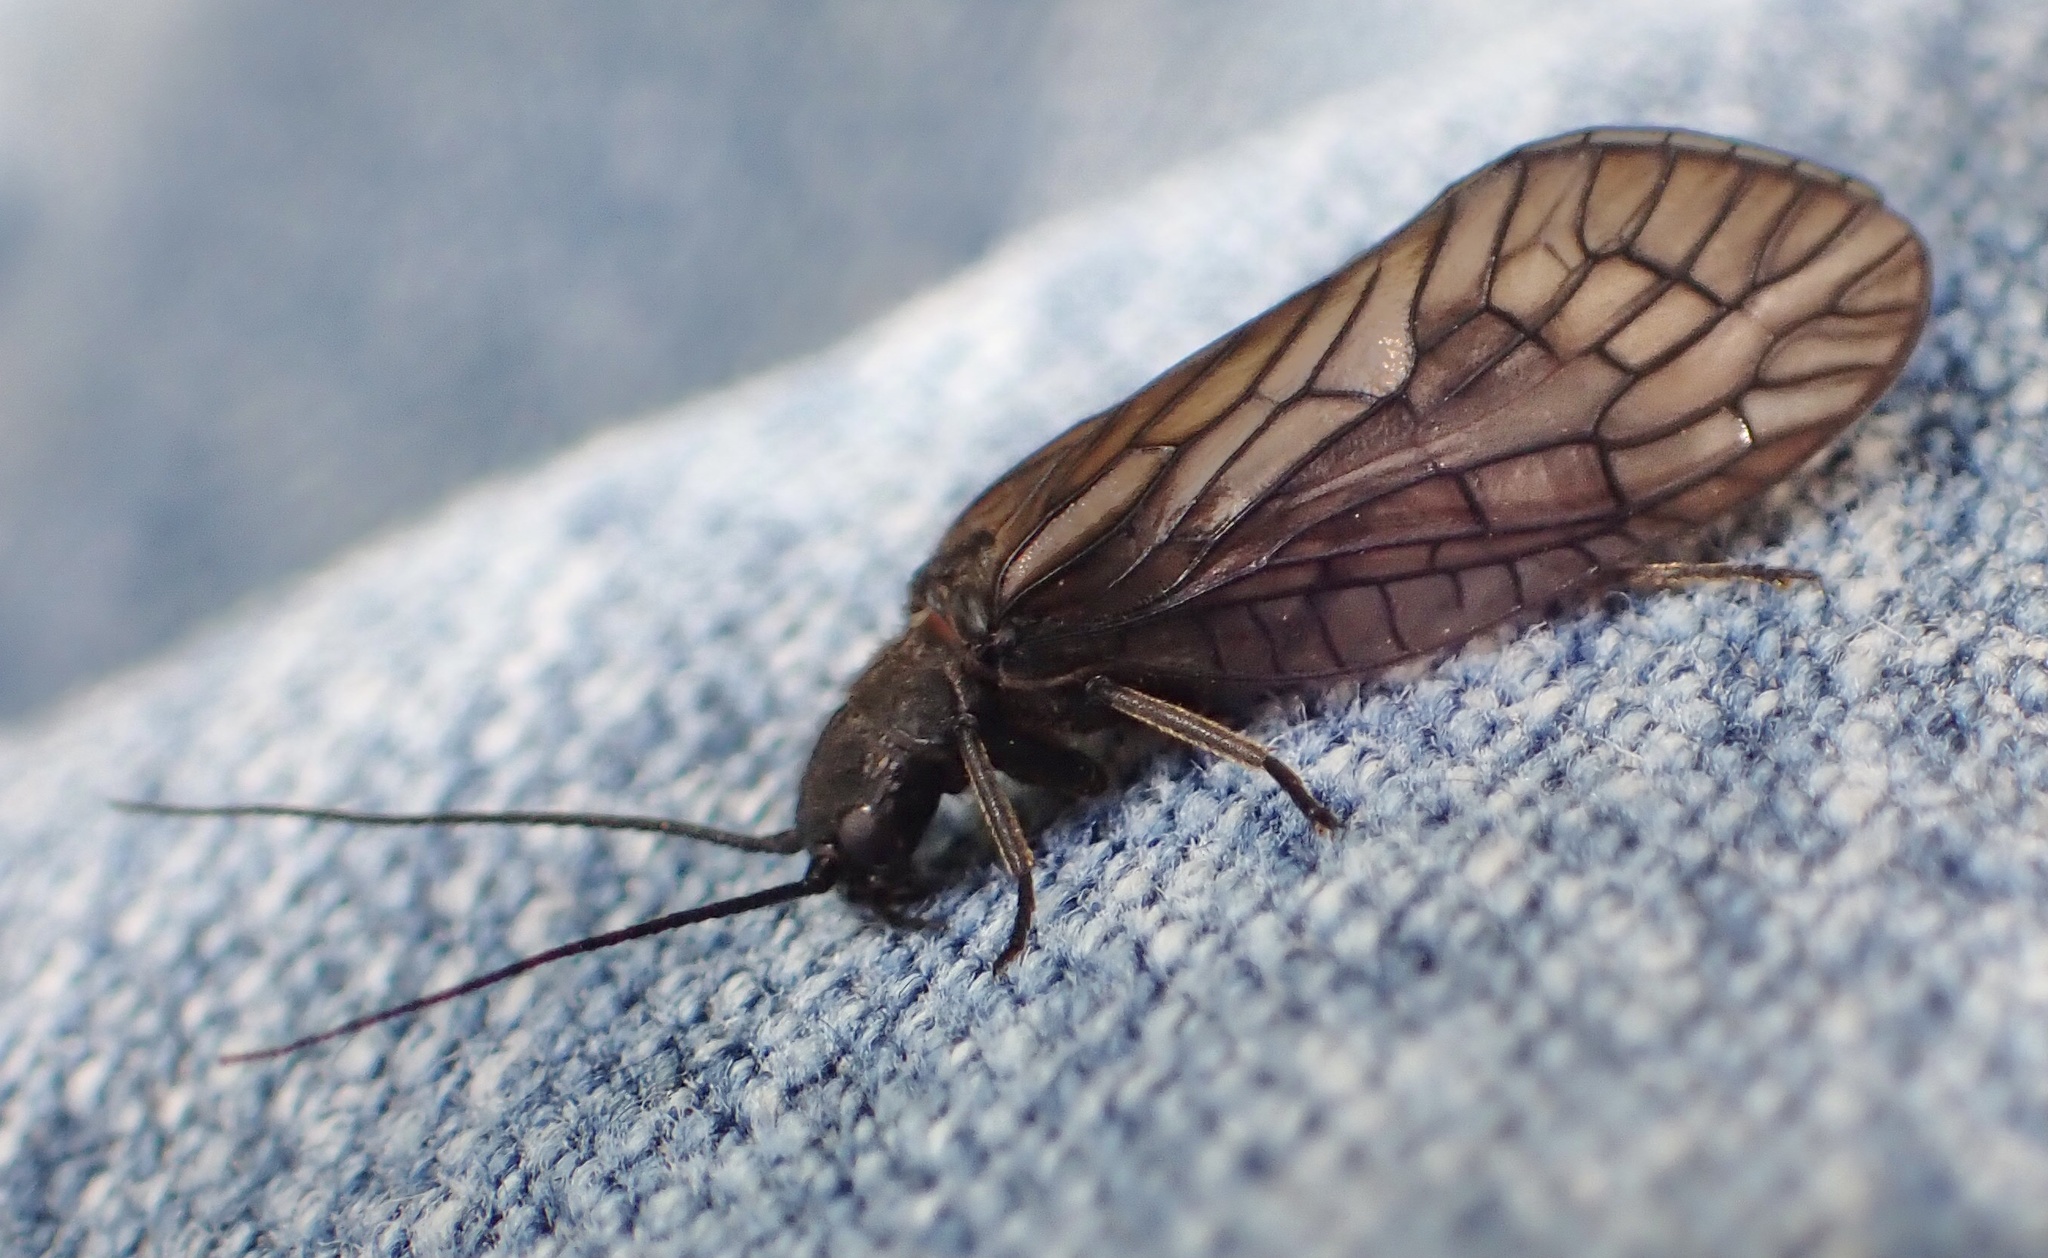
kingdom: Animalia
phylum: Arthropoda
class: Insecta
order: Megaloptera
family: Sialidae
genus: Sialis
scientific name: Sialis
